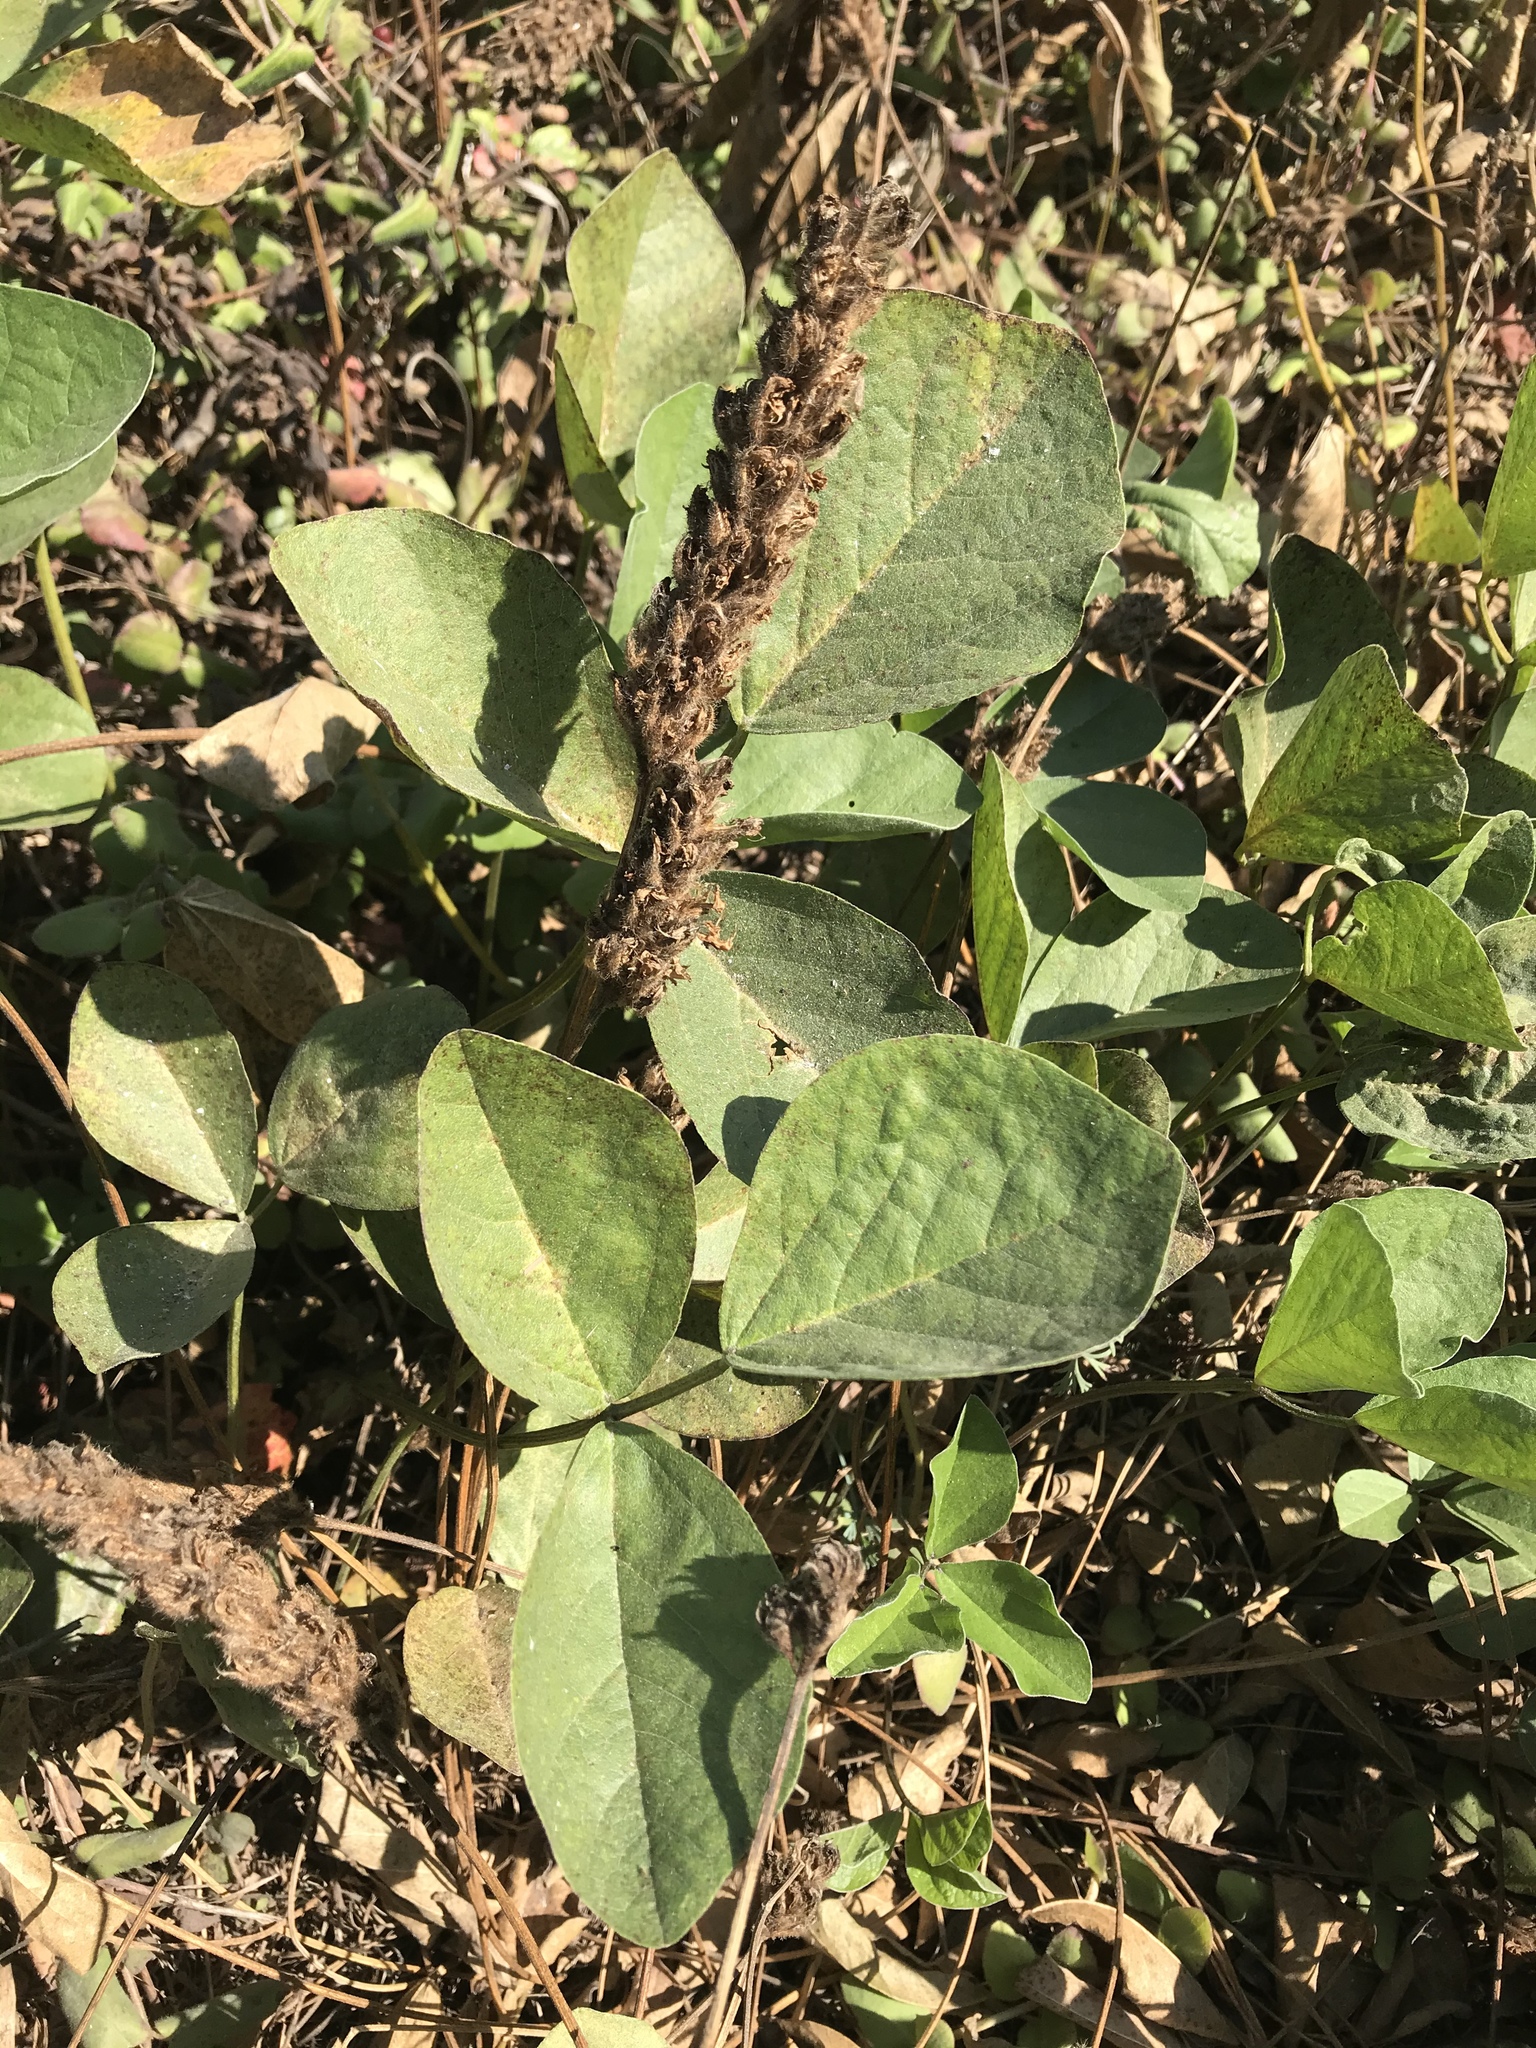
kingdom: Plantae
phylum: Tracheophyta
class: Magnoliopsida
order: Fabales
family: Fabaceae
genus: Hoita
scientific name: Hoita orbicularis
